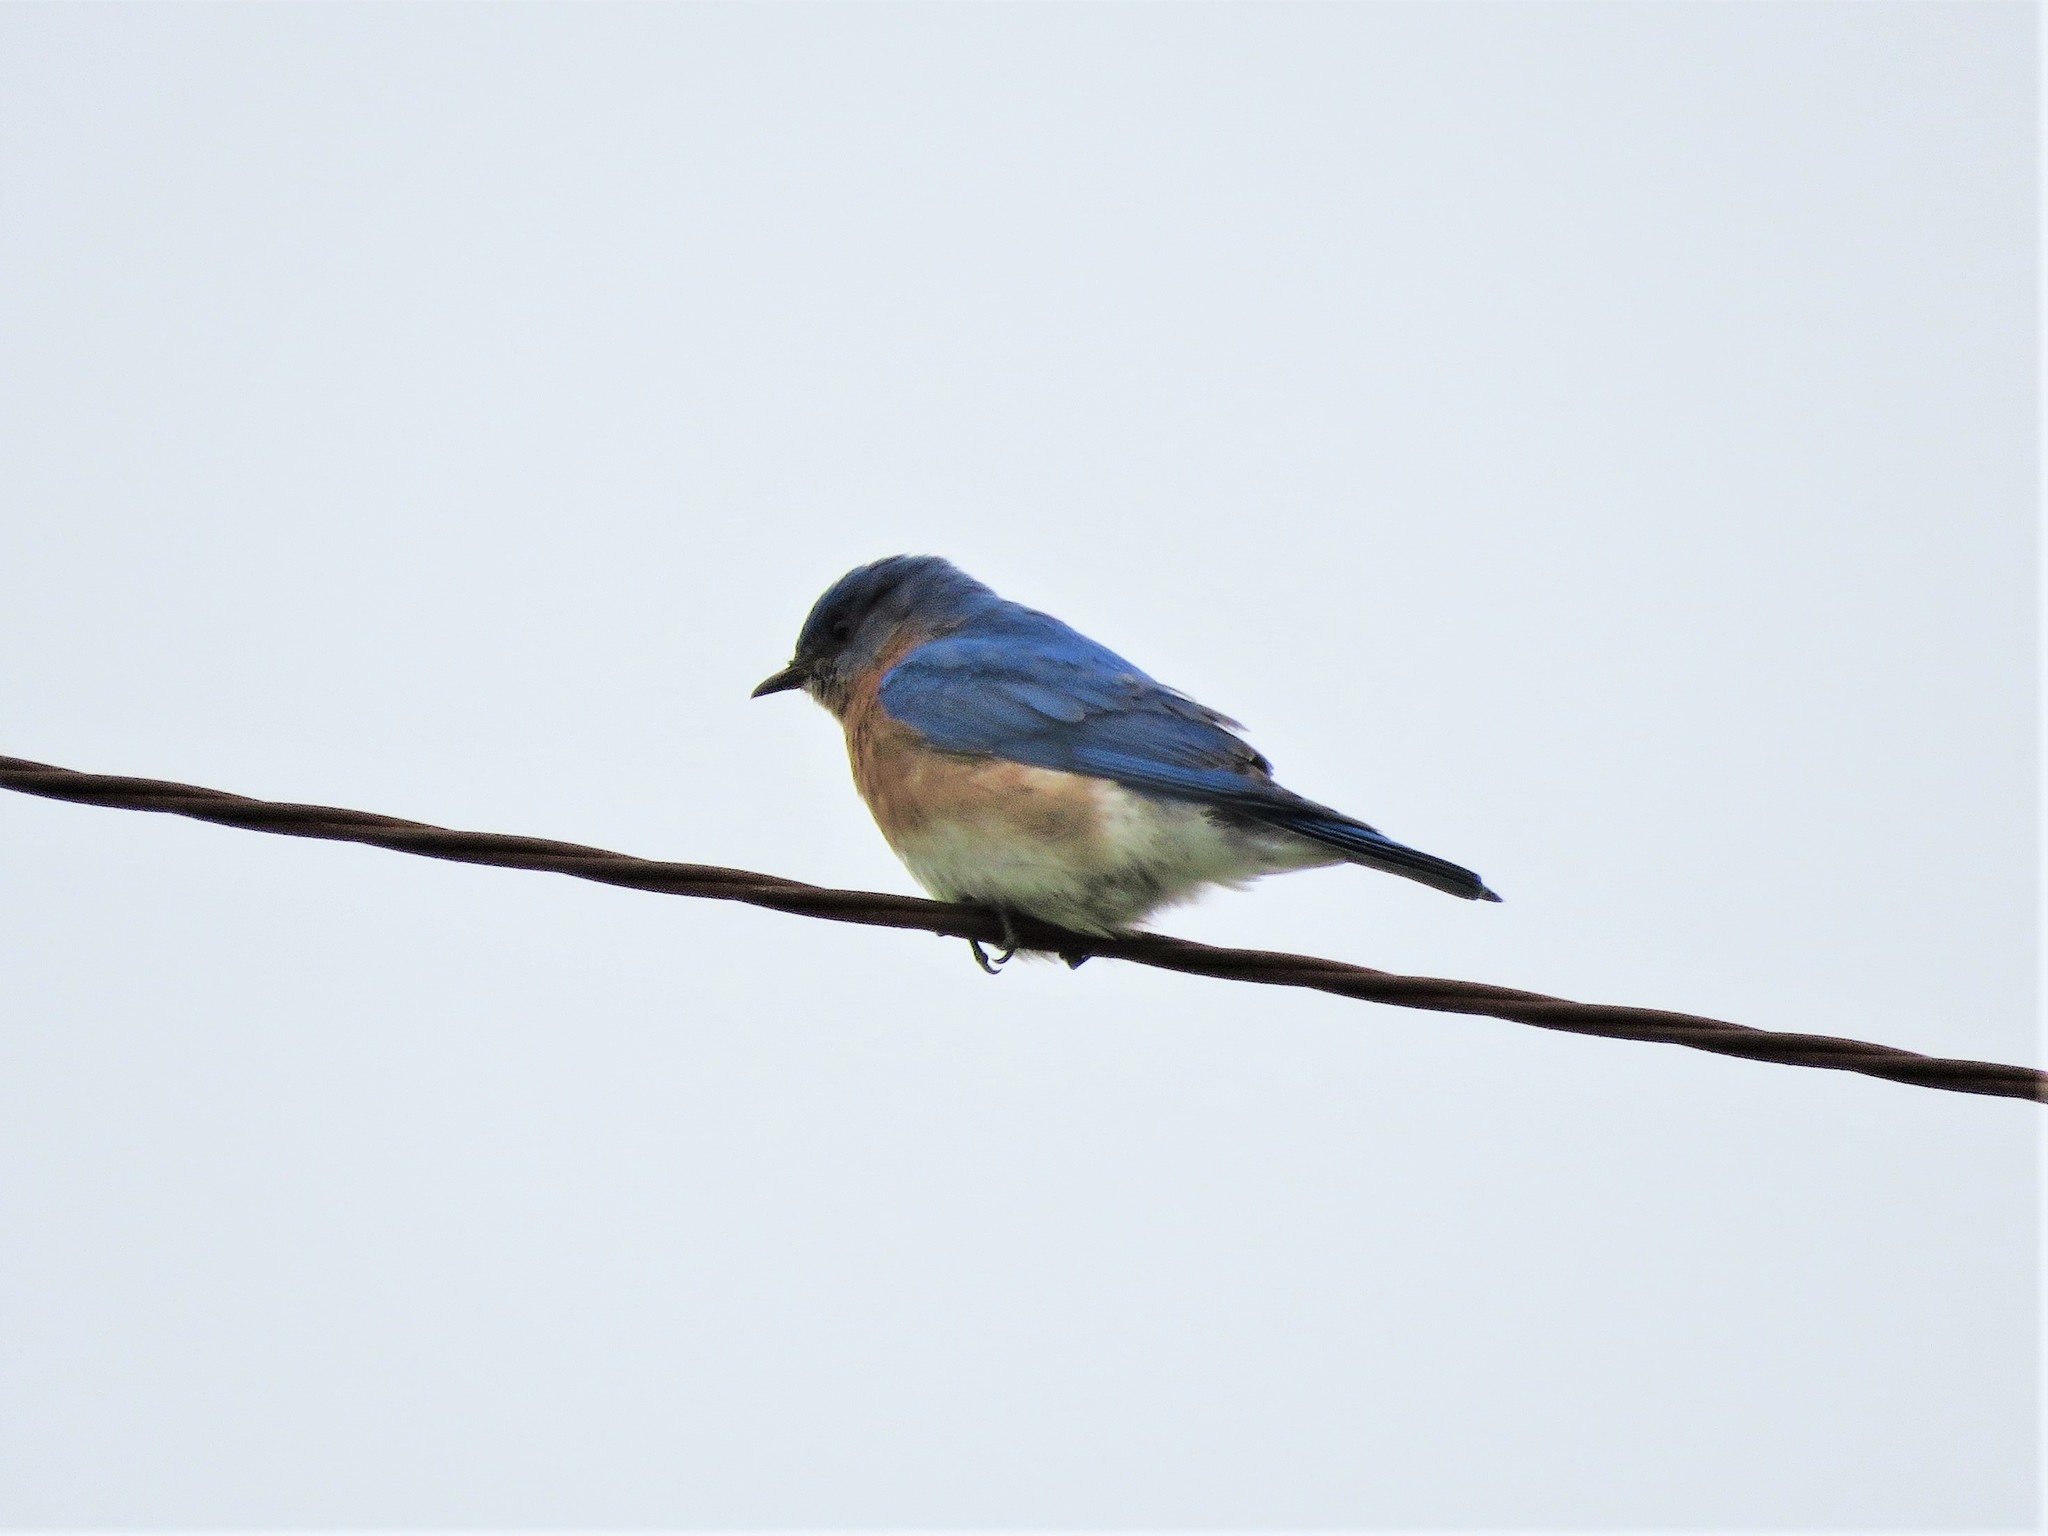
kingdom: Animalia
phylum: Chordata
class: Aves
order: Passeriformes
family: Turdidae
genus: Sialia
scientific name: Sialia sialis
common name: Eastern bluebird
